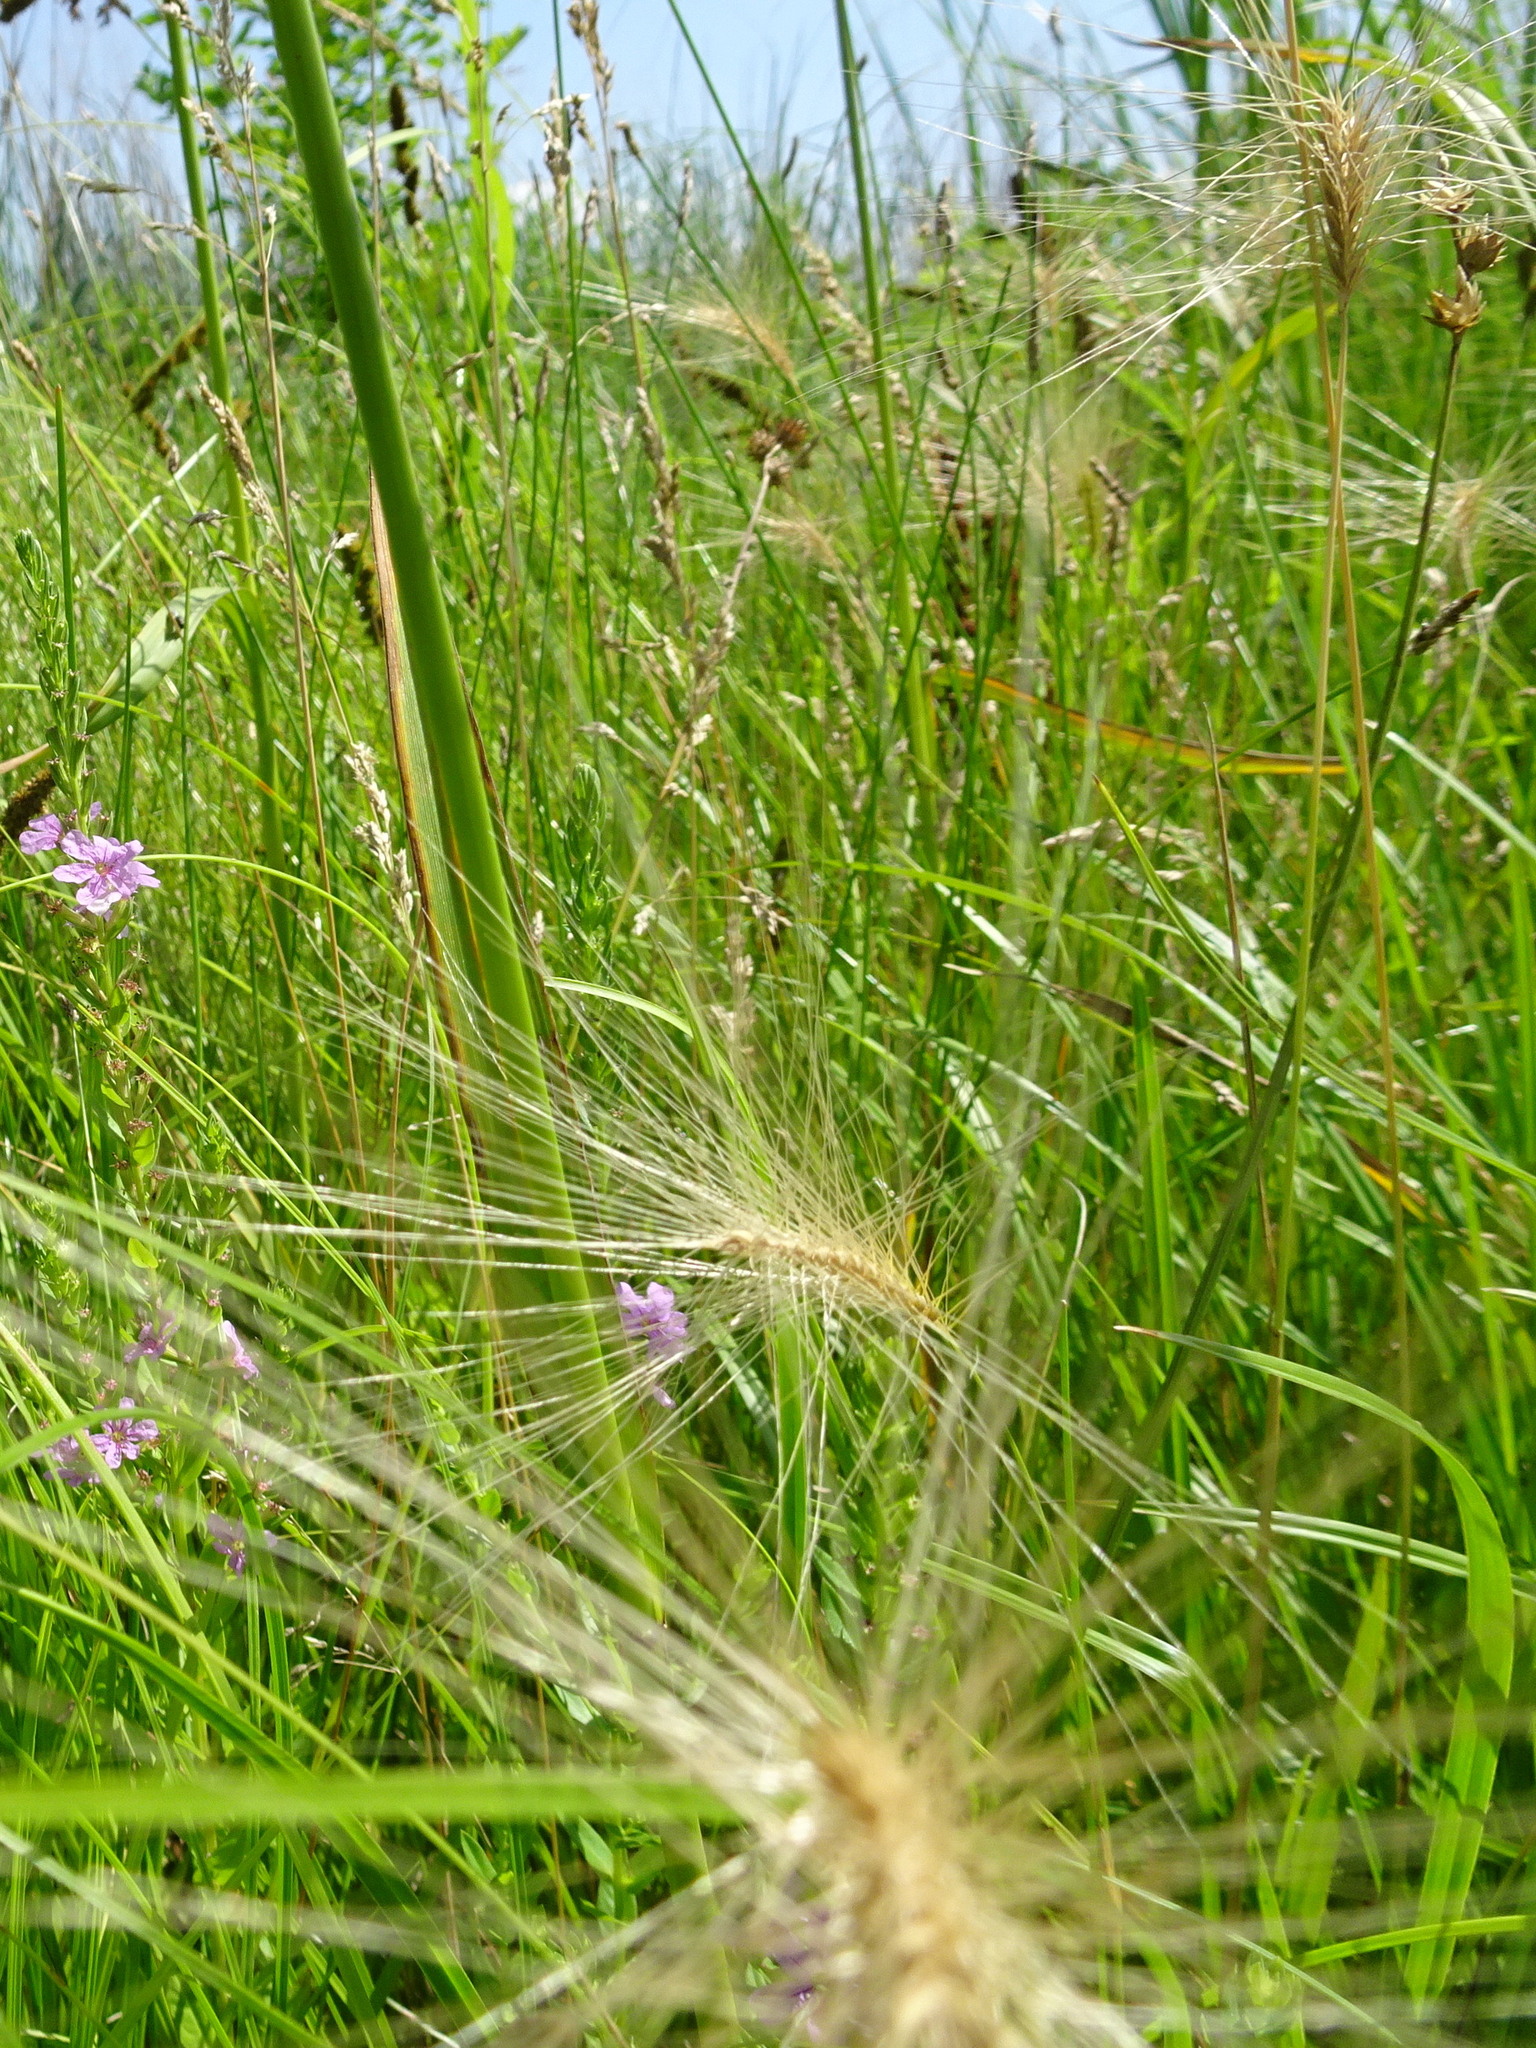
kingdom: Plantae
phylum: Tracheophyta
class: Liliopsida
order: Poales
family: Poaceae
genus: Hordeum
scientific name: Hordeum jubatum
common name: Foxtail barley
